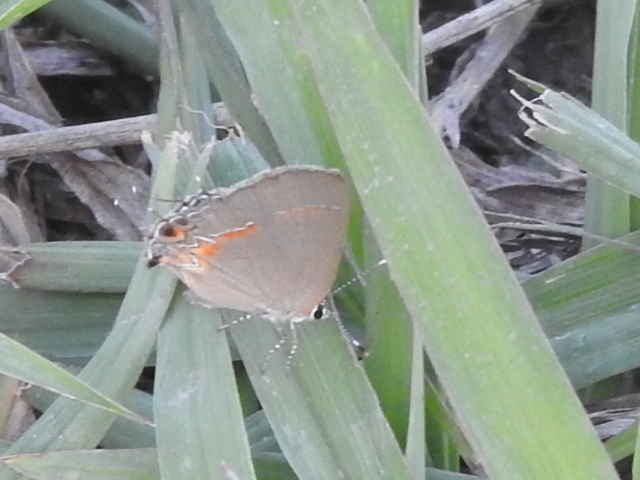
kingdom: Animalia
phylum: Arthropoda
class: Insecta
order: Lepidoptera
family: Lycaenidae
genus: Calycopis
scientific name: Calycopis isobeon
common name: Dusky-blue groundstreak
